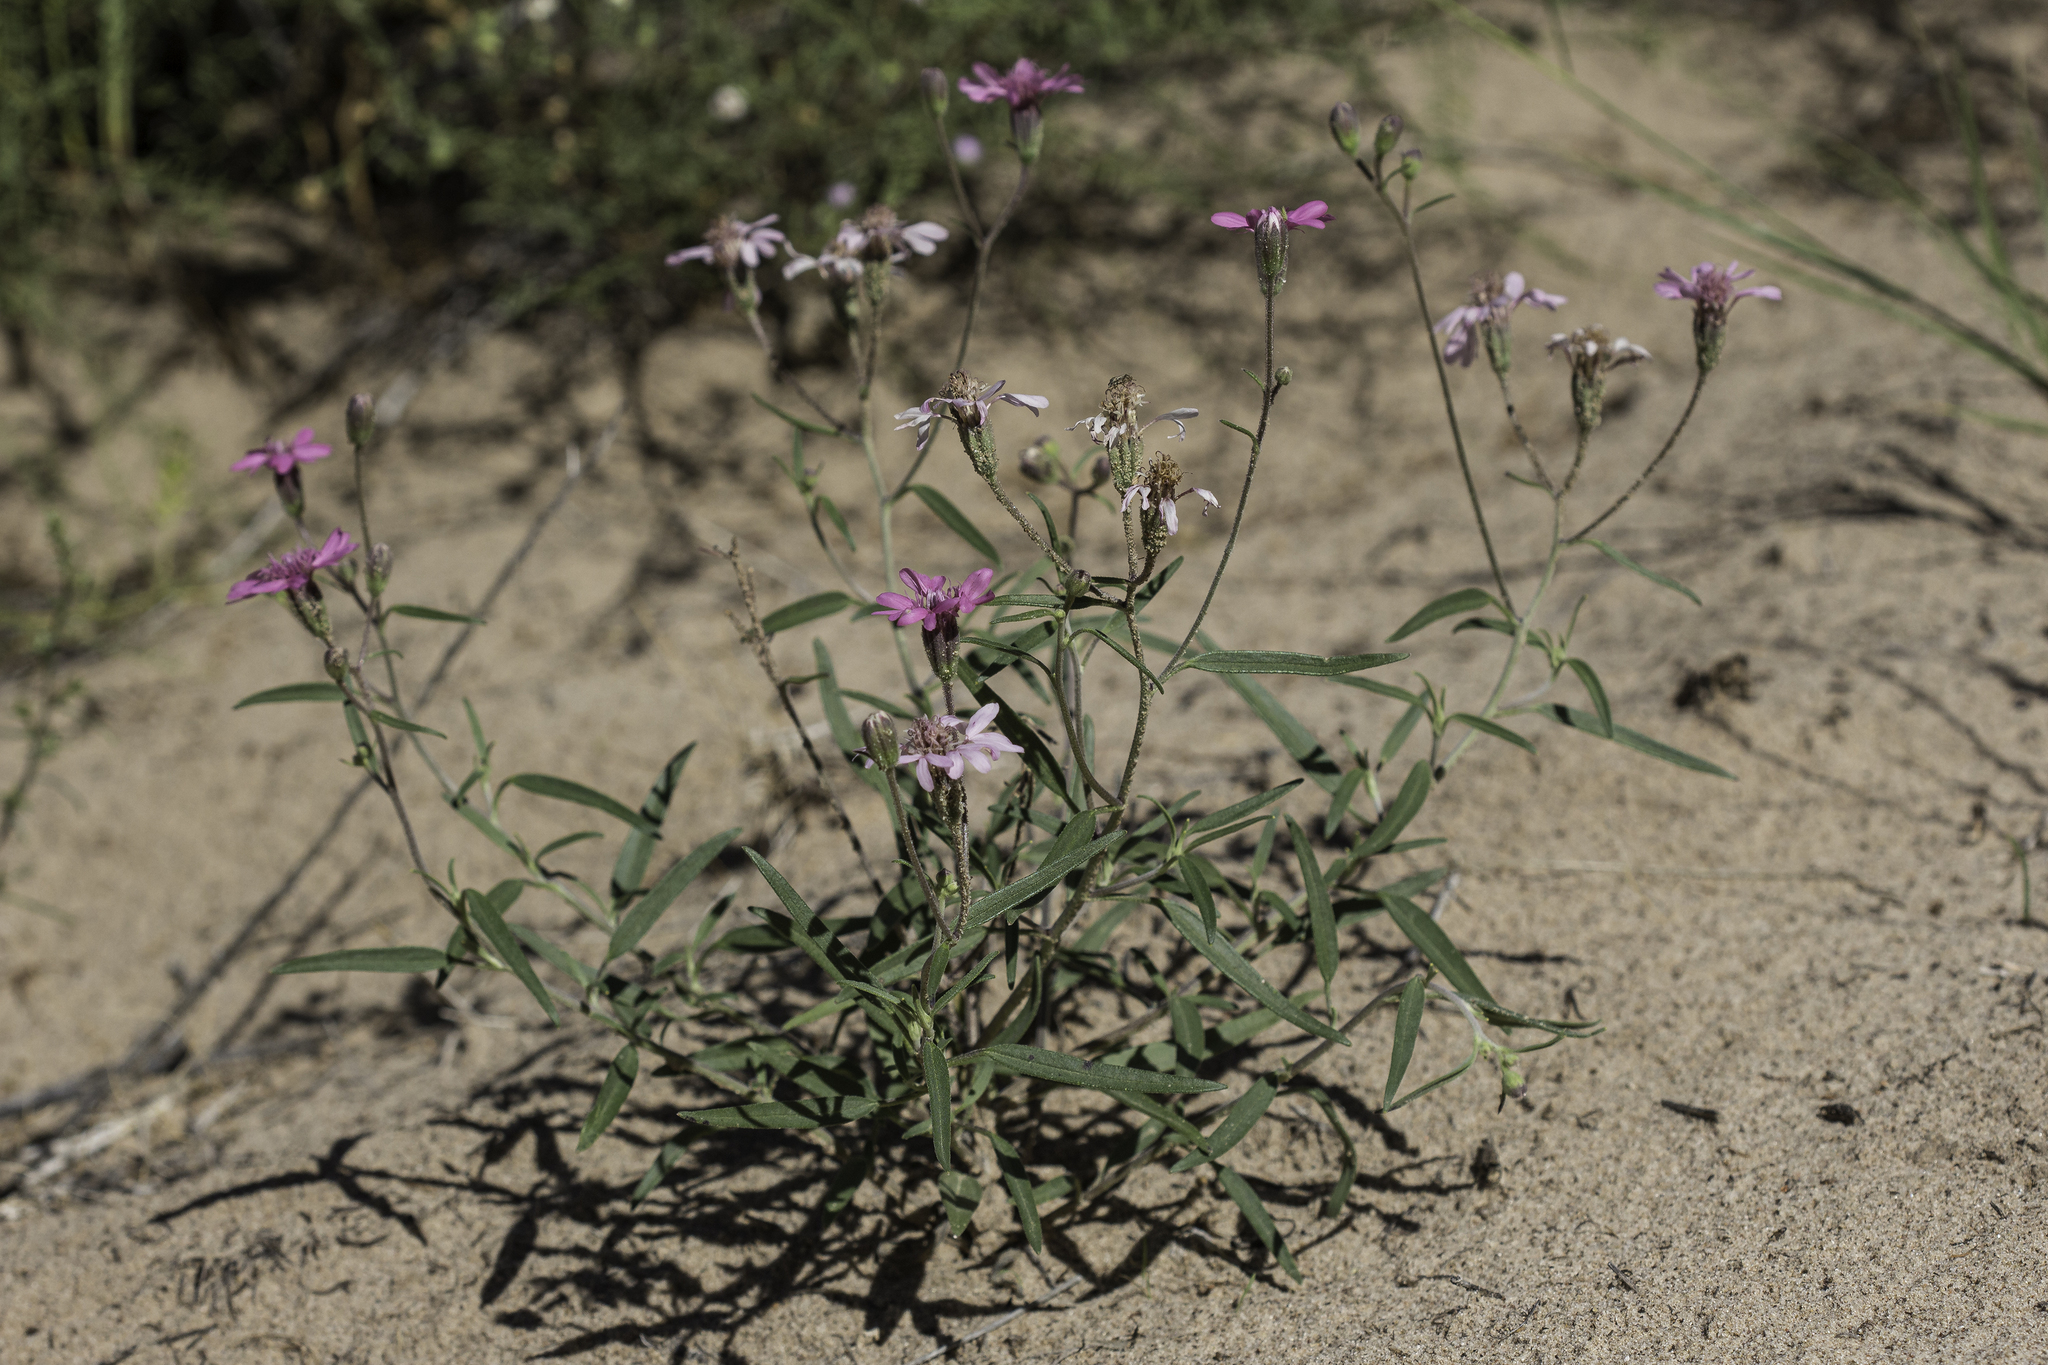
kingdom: Plantae
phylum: Tracheophyta
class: Magnoliopsida
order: Asterales
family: Asteraceae
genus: Palafoxia
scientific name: Palafoxia sphacelata
